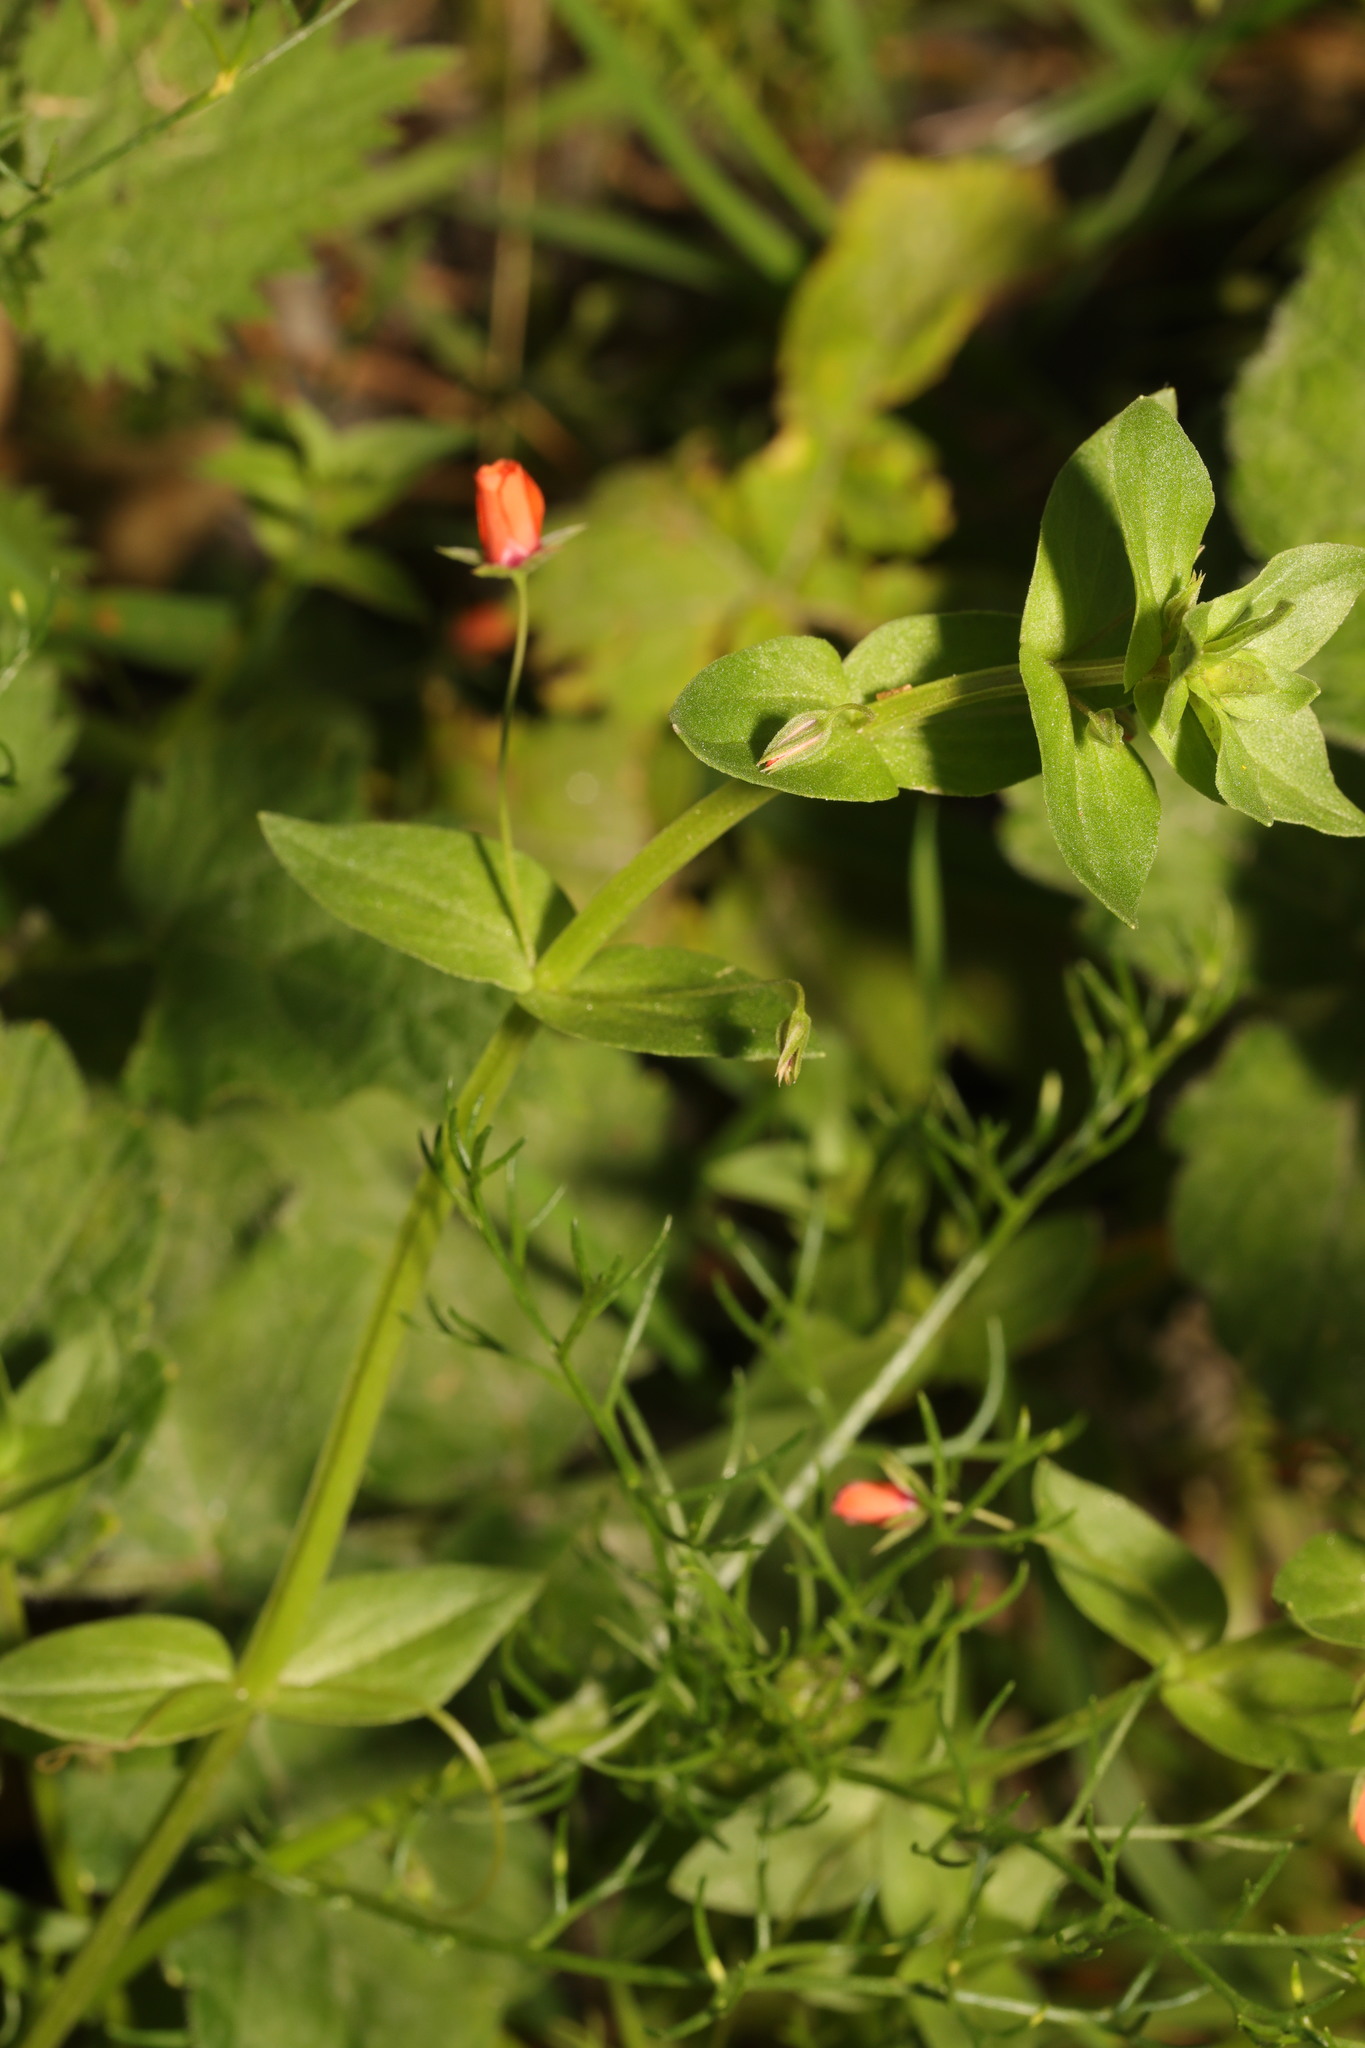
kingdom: Plantae
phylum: Tracheophyta
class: Magnoliopsida
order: Ericales
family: Primulaceae
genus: Lysimachia
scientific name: Lysimachia arvensis
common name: Scarlet pimpernel
